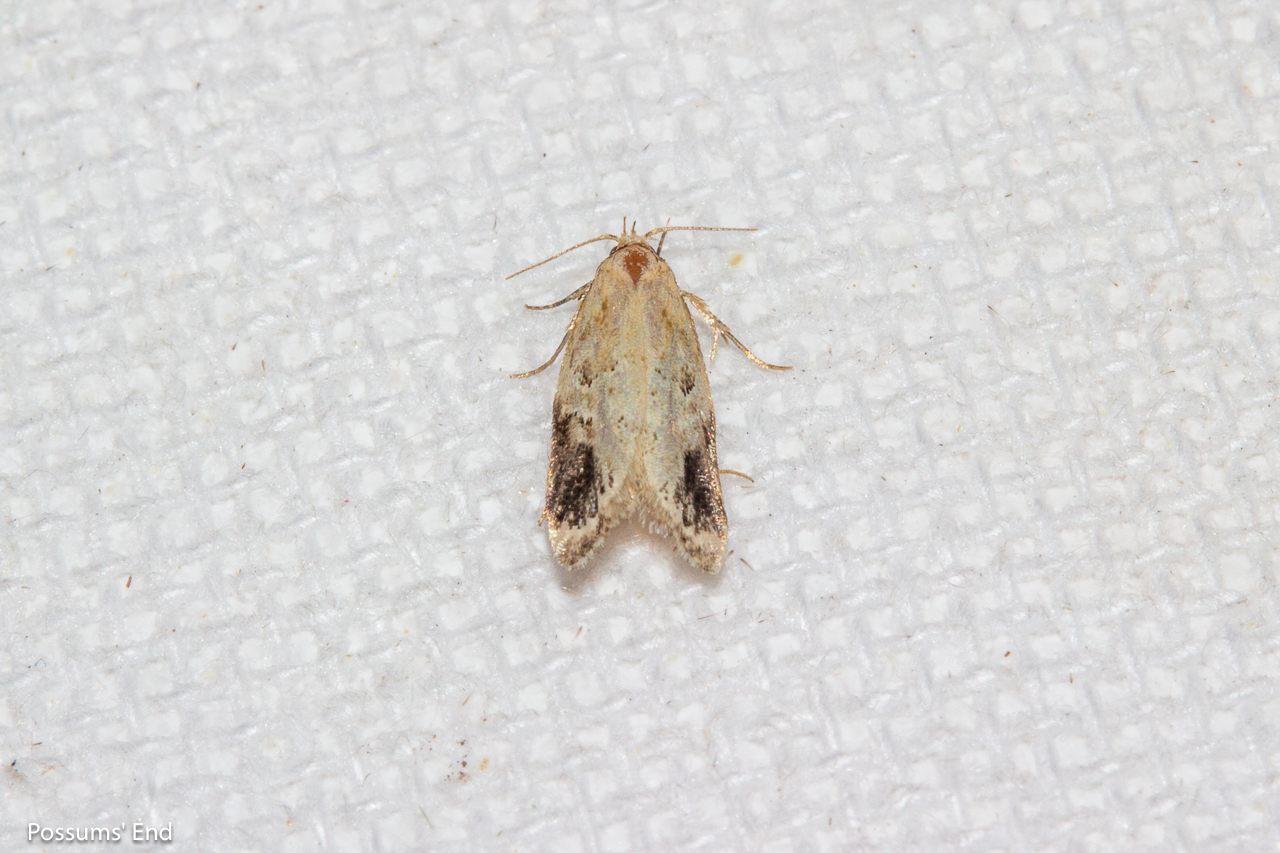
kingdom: Animalia
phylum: Arthropoda
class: Insecta
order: Lepidoptera
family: Oecophoridae
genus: Trachypepla
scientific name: Trachypepla aspidephora
